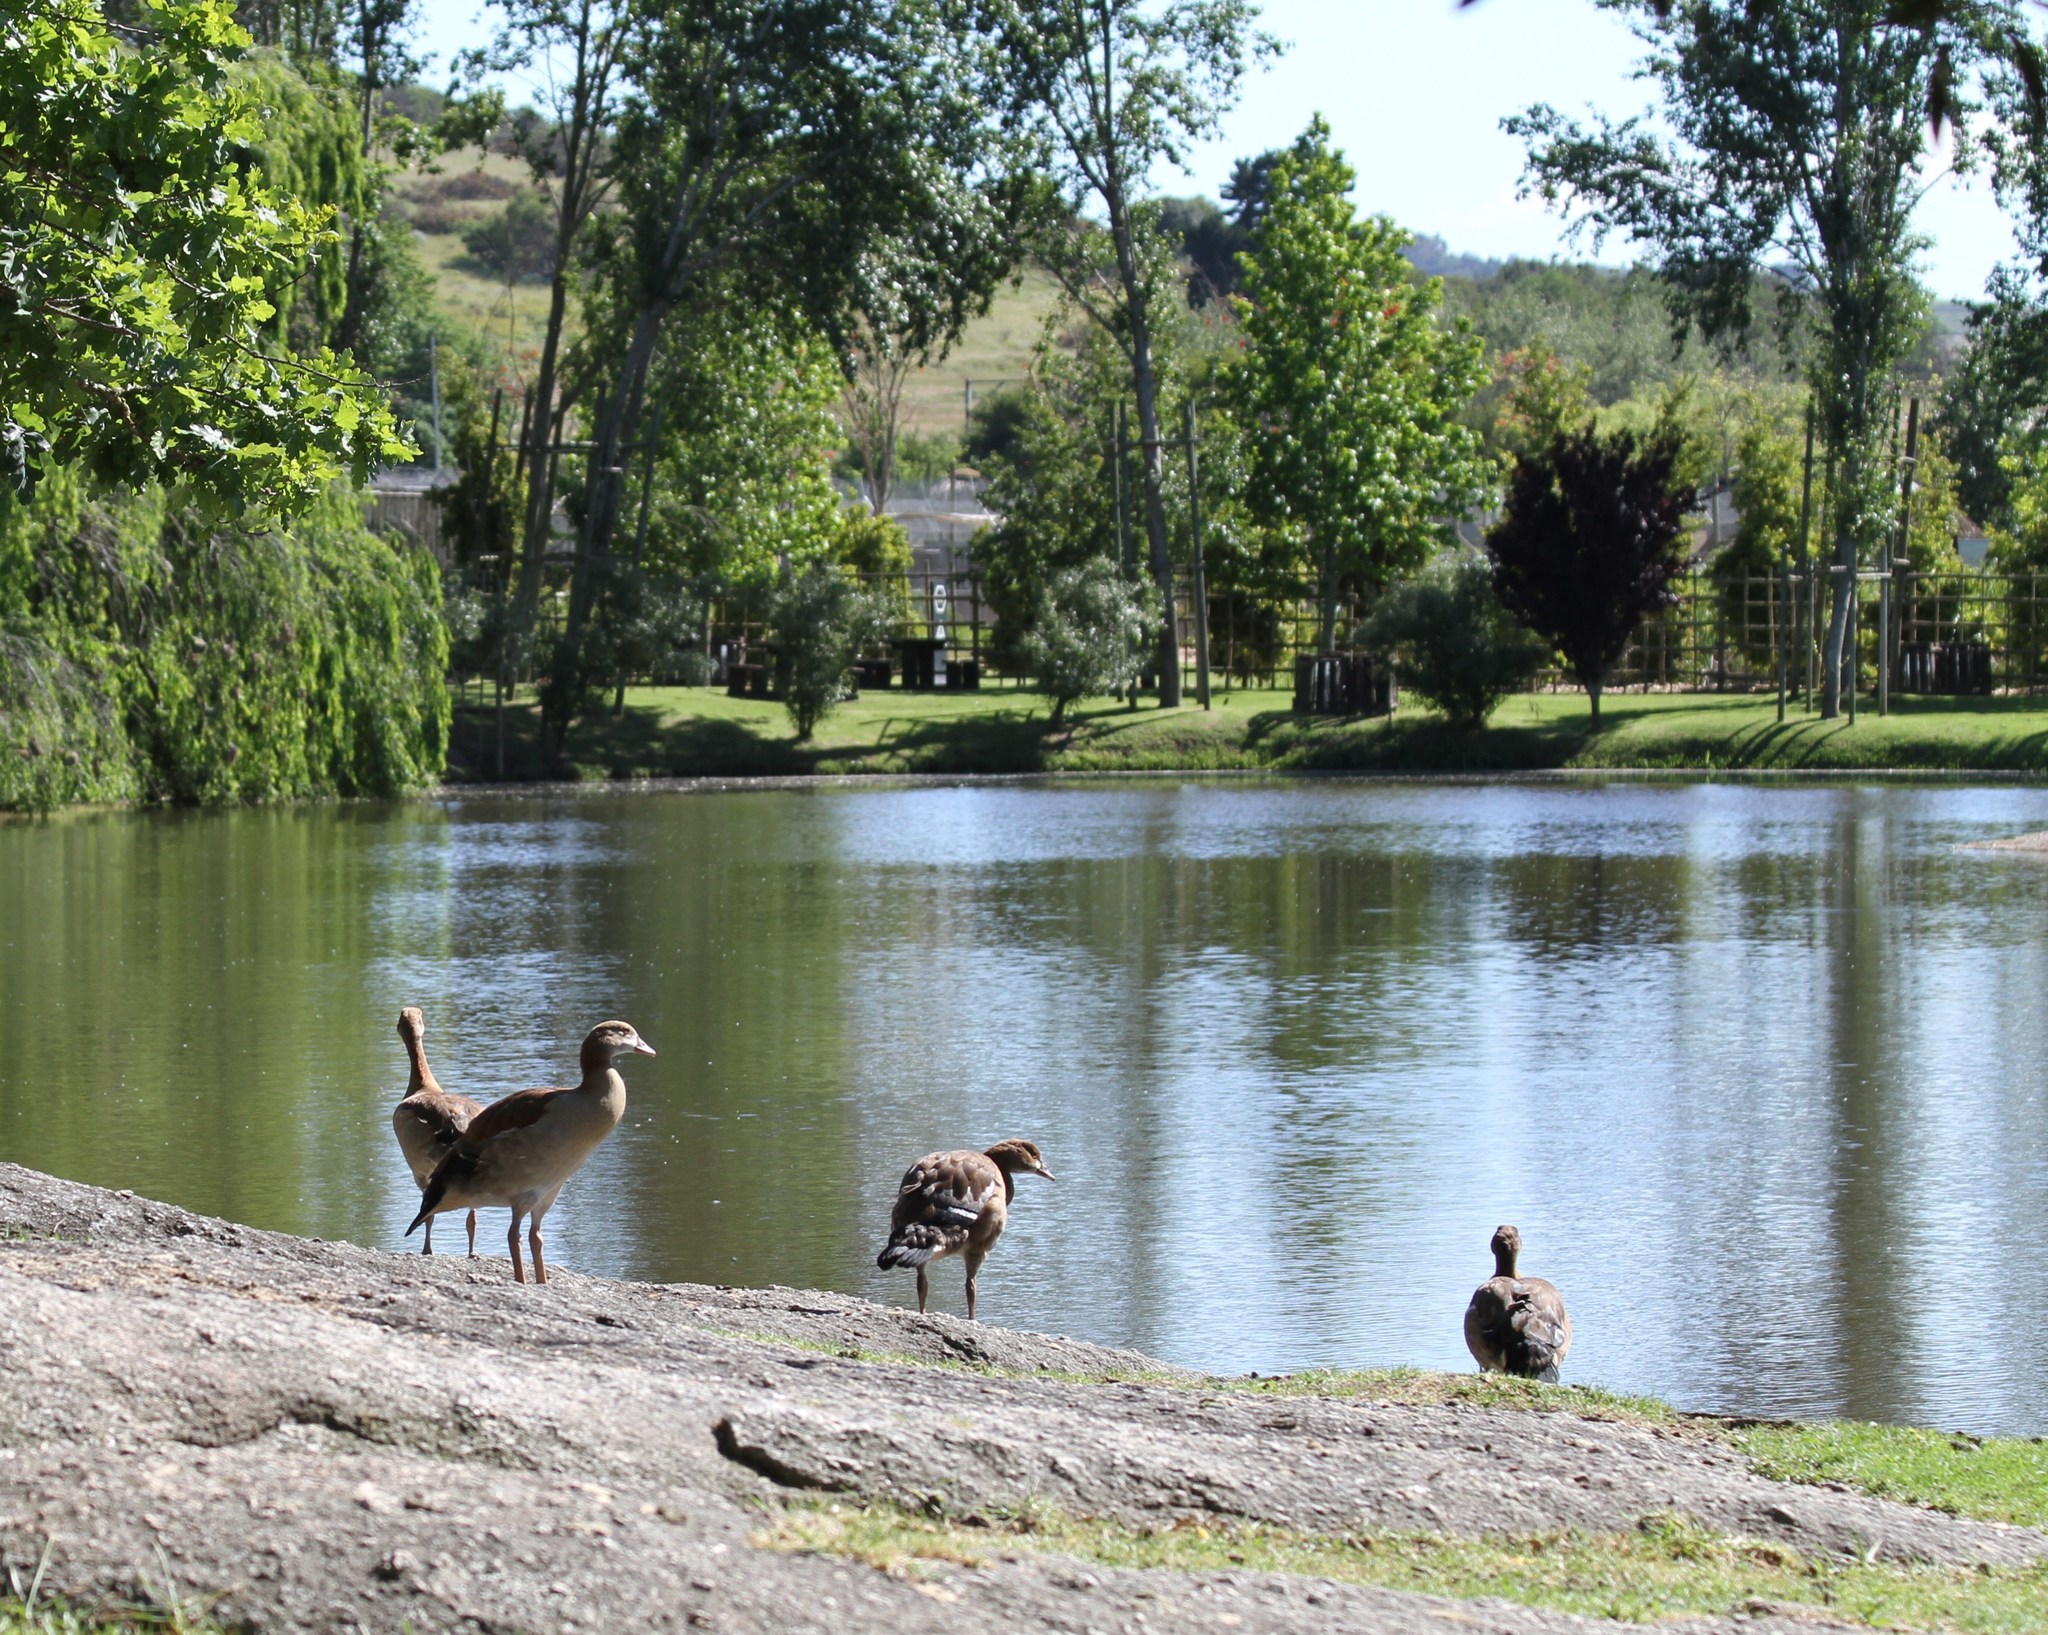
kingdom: Animalia
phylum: Chordata
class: Aves
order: Anseriformes
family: Anatidae
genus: Alopochen
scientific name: Alopochen aegyptiaca
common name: Egyptian goose
